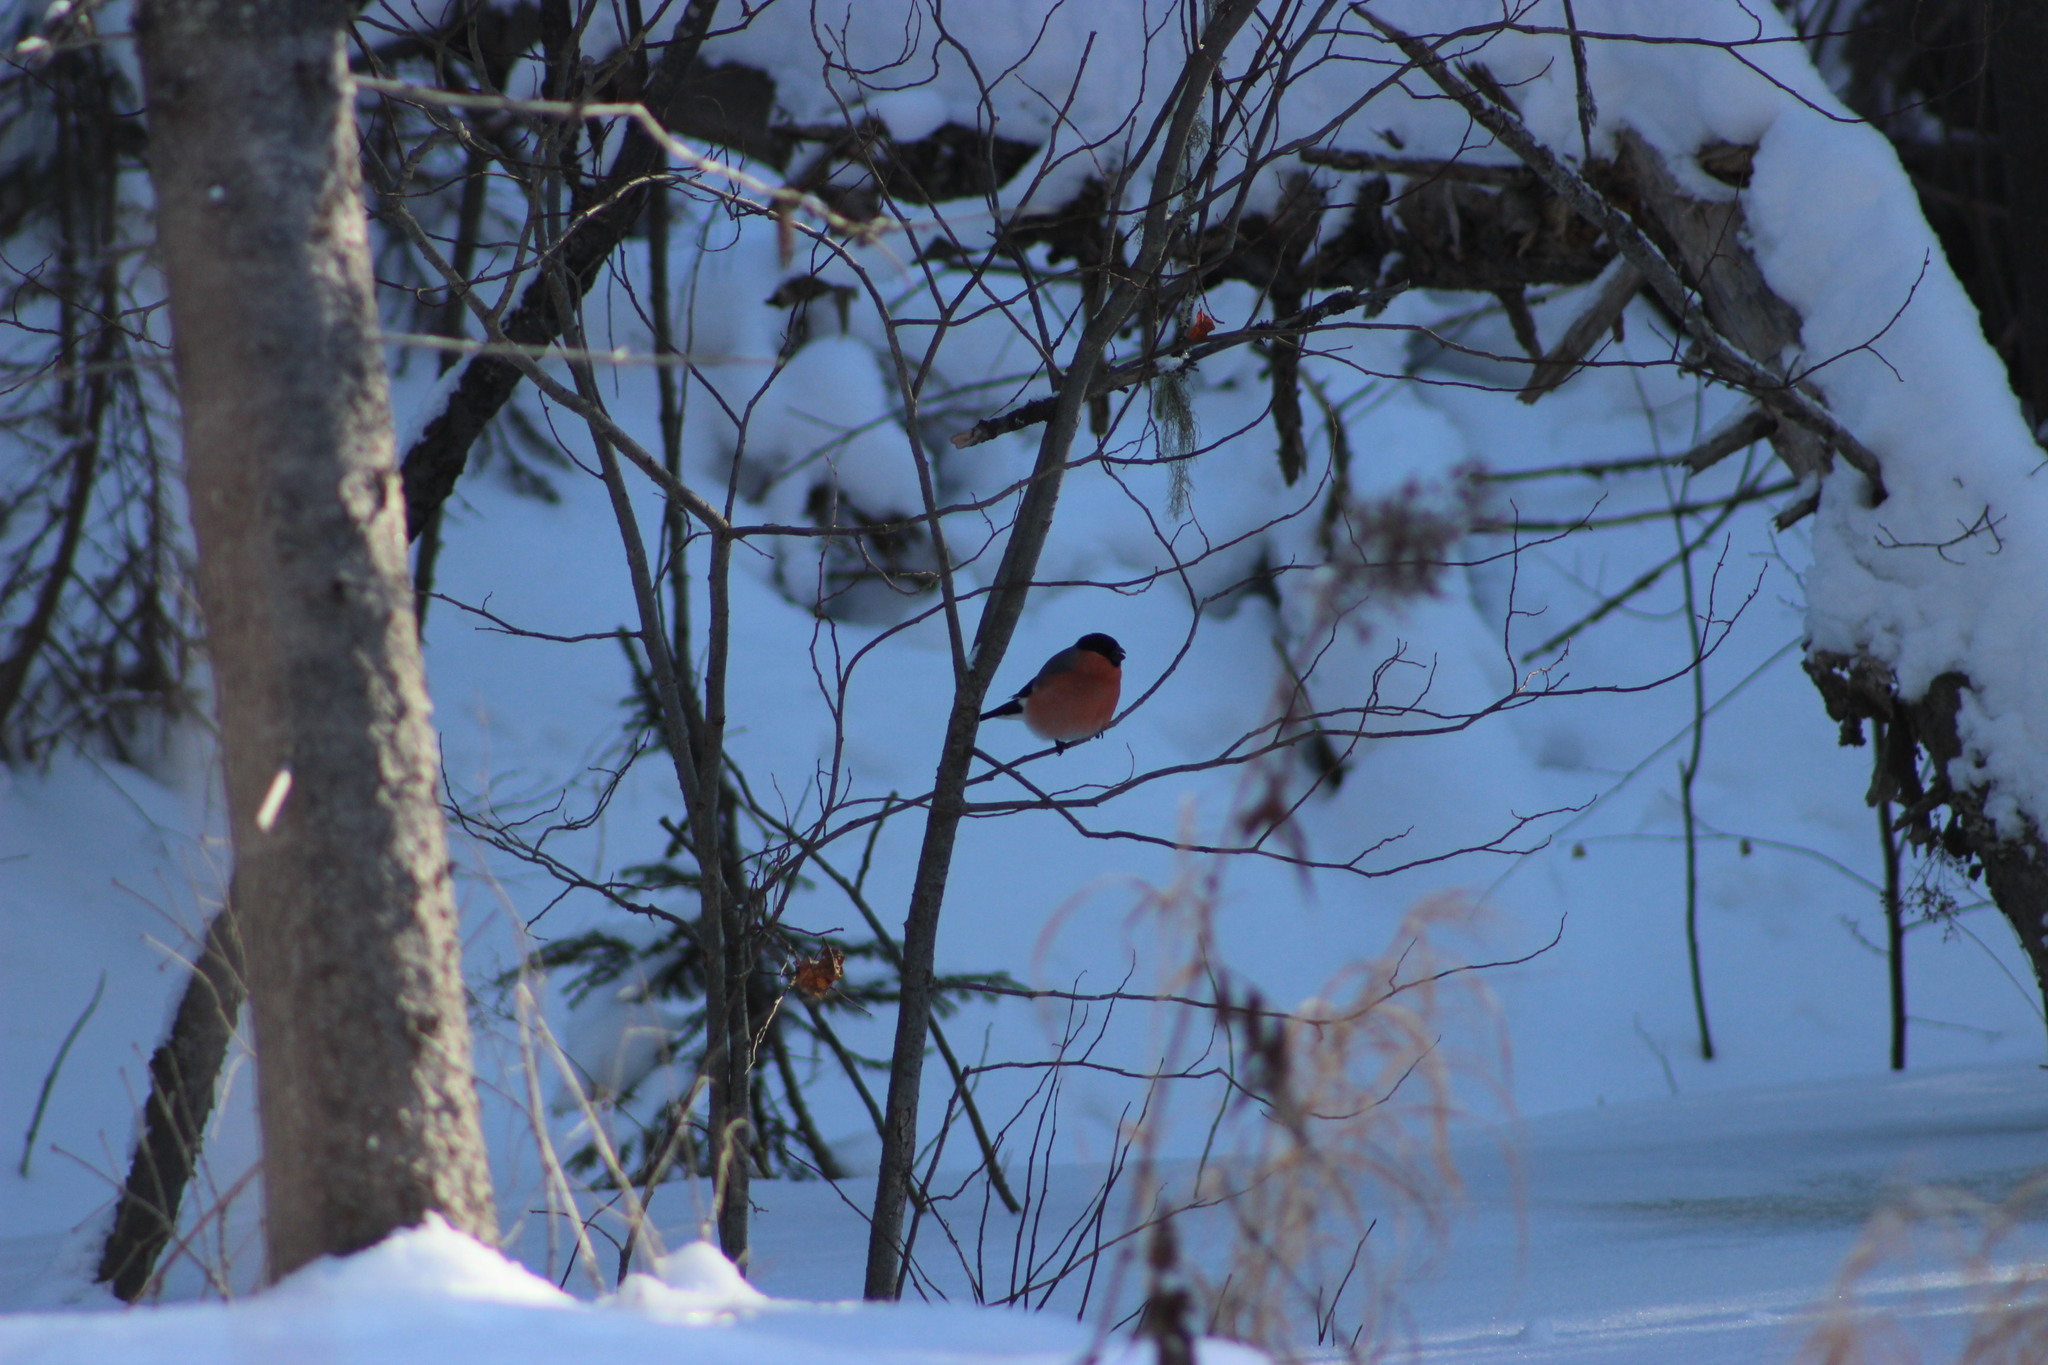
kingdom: Animalia
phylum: Chordata
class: Aves
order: Passeriformes
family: Fringillidae
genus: Pyrrhula
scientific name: Pyrrhula pyrrhula
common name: Eurasian bullfinch
